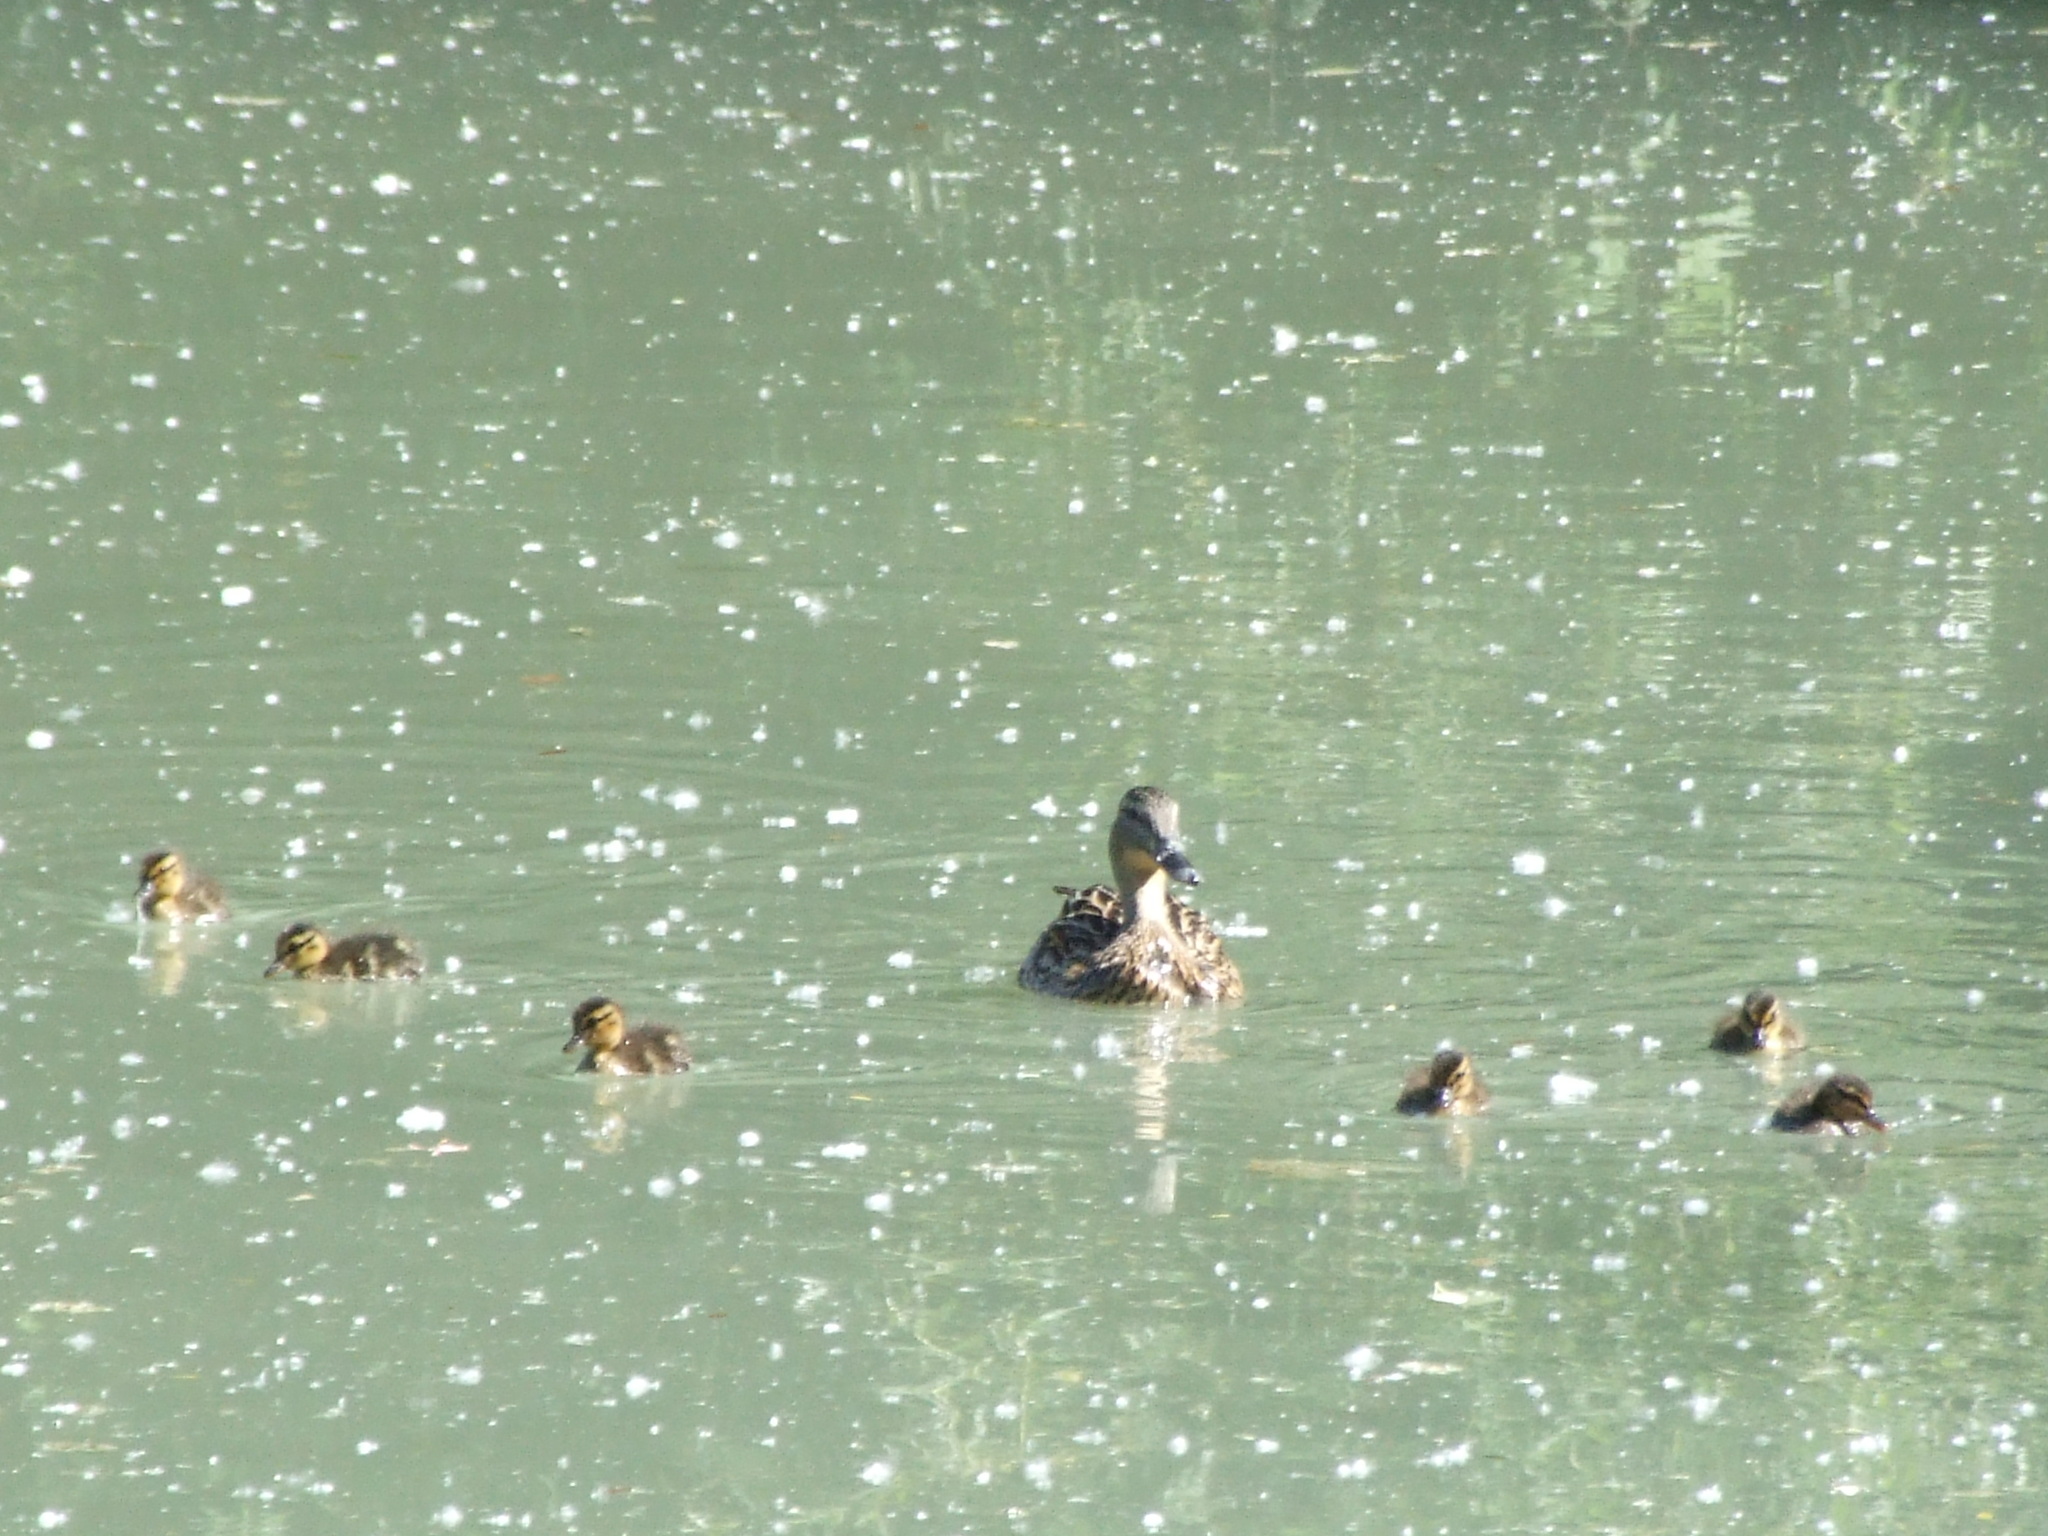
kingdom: Animalia
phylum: Chordata
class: Aves
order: Anseriformes
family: Anatidae
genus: Anas
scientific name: Anas platyrhynchos
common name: Mallard
